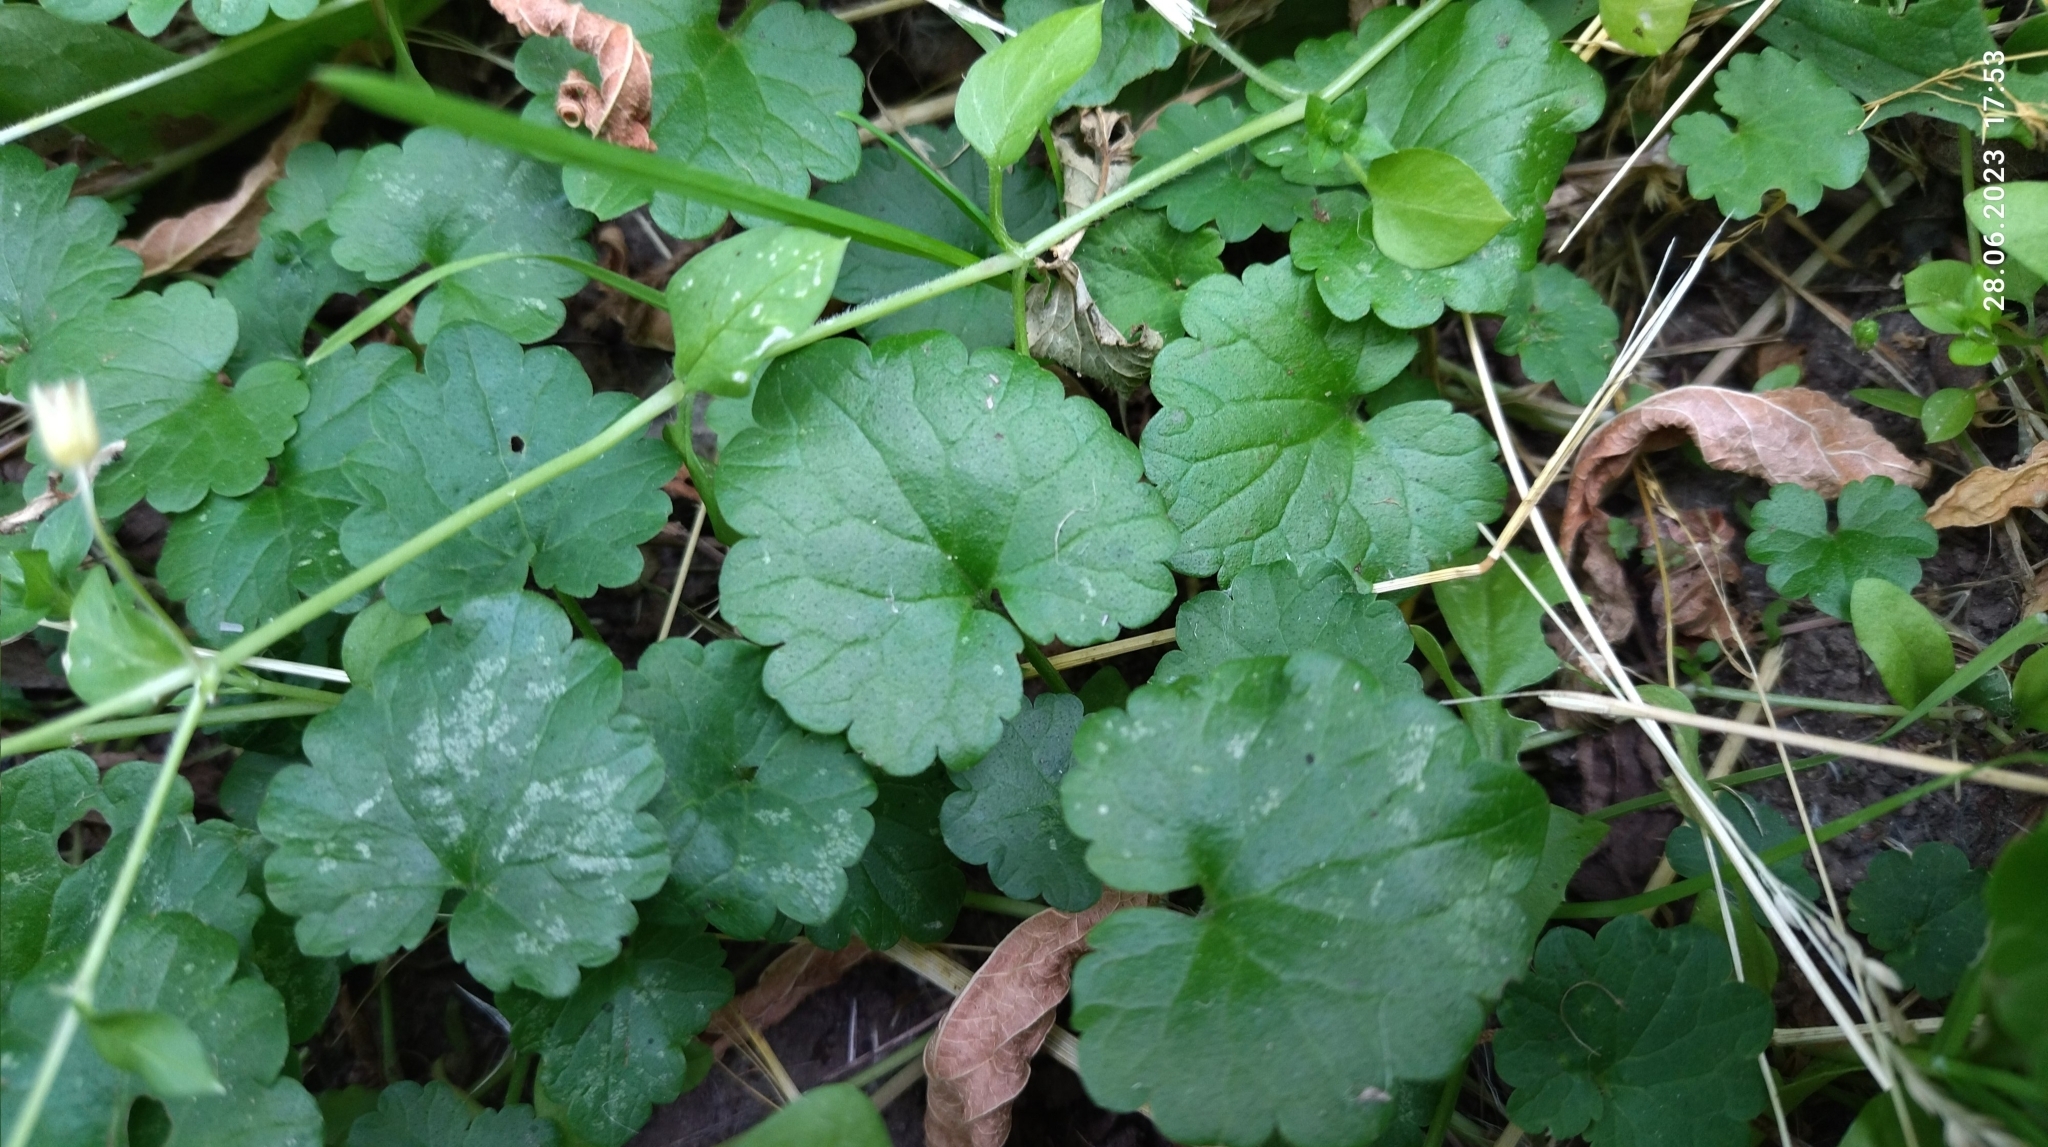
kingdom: Plantae
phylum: Tracheophyta
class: Magnoliopsida
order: Lamiales
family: Lamiaceae
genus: Glechoma
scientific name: Glechoma hederacea
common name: Ground ivy
